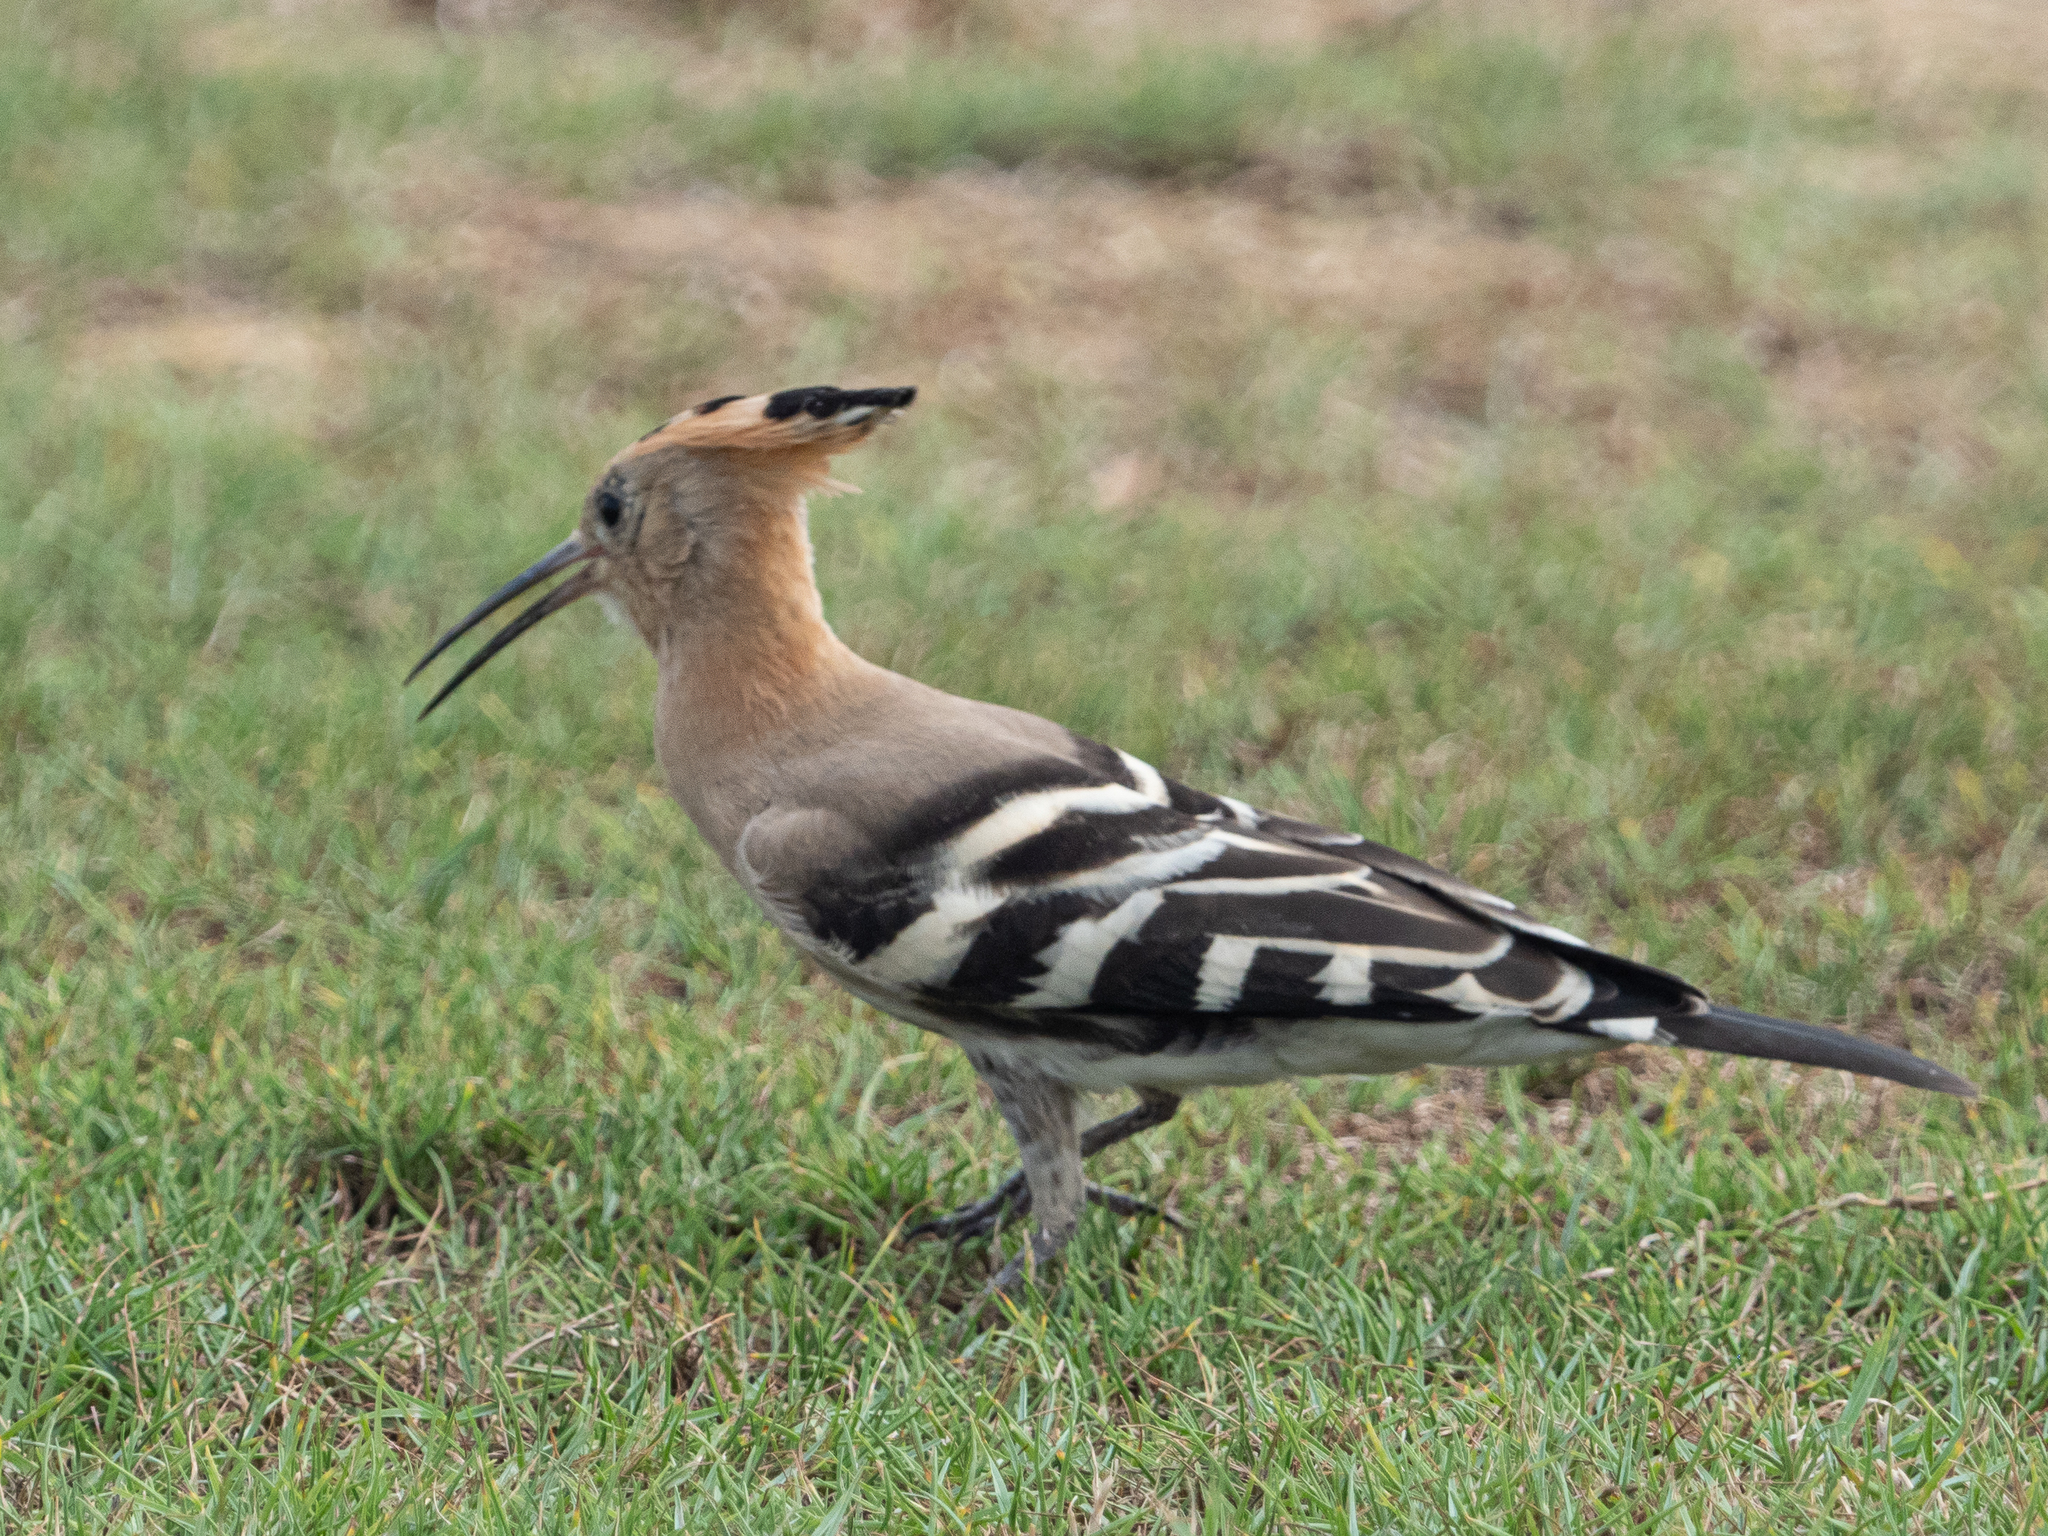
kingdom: Animalia
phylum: Chordata
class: Aves
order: Bucerotiformes
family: Upupidae
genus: Upupa
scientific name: Upupa epops
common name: Eurasian hoopoe
